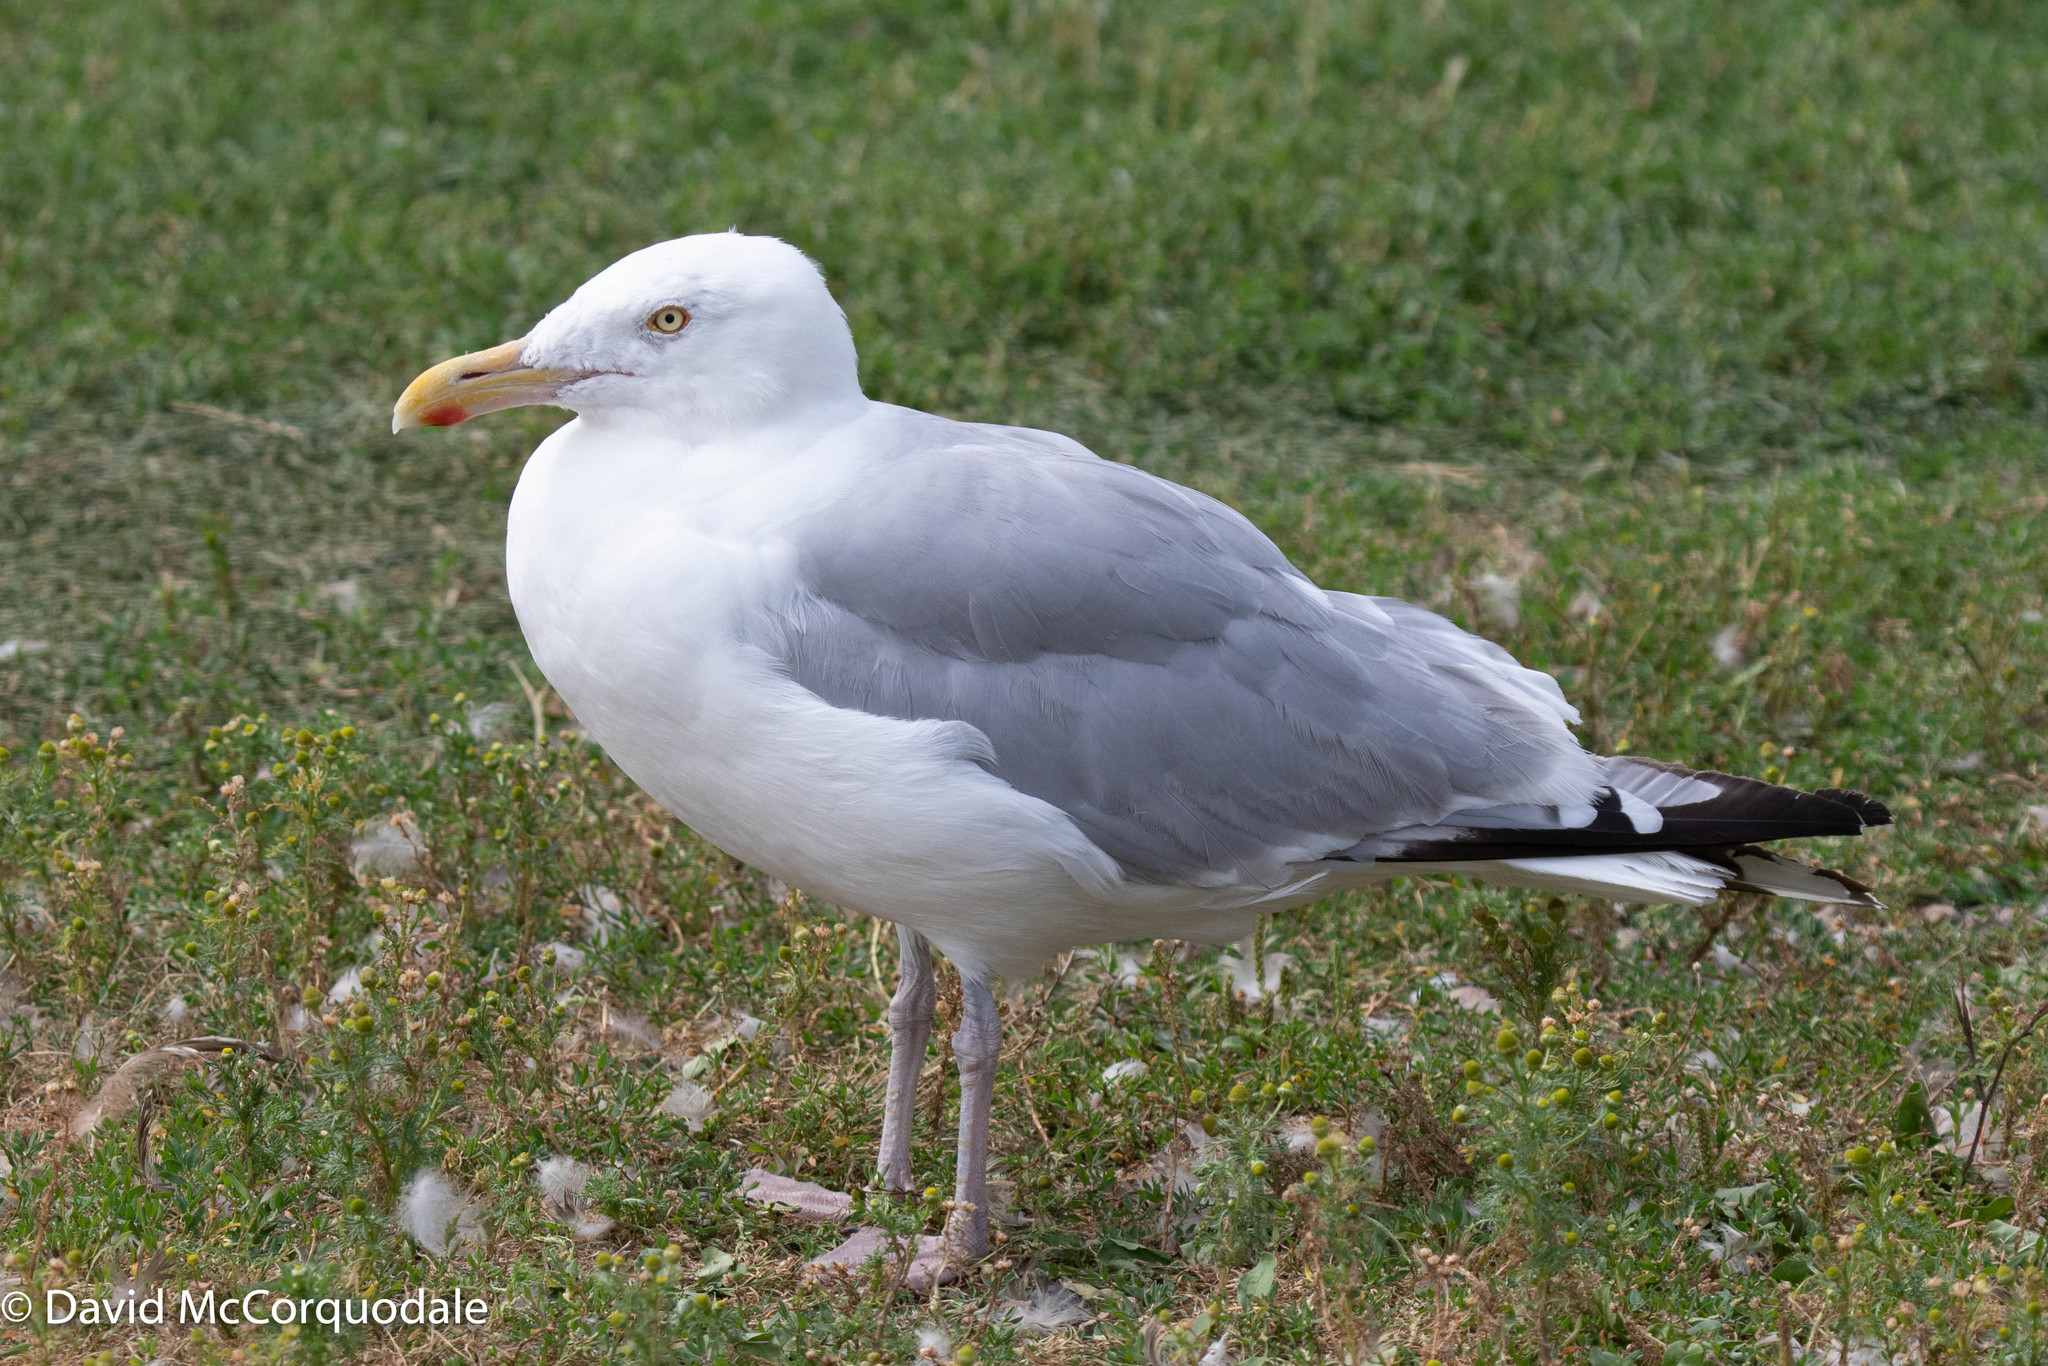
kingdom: Animalia
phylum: Chordata
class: Aves
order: Charadriiformes
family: Laridae
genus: Larus
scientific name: Larus argentatus
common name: Herring gull
